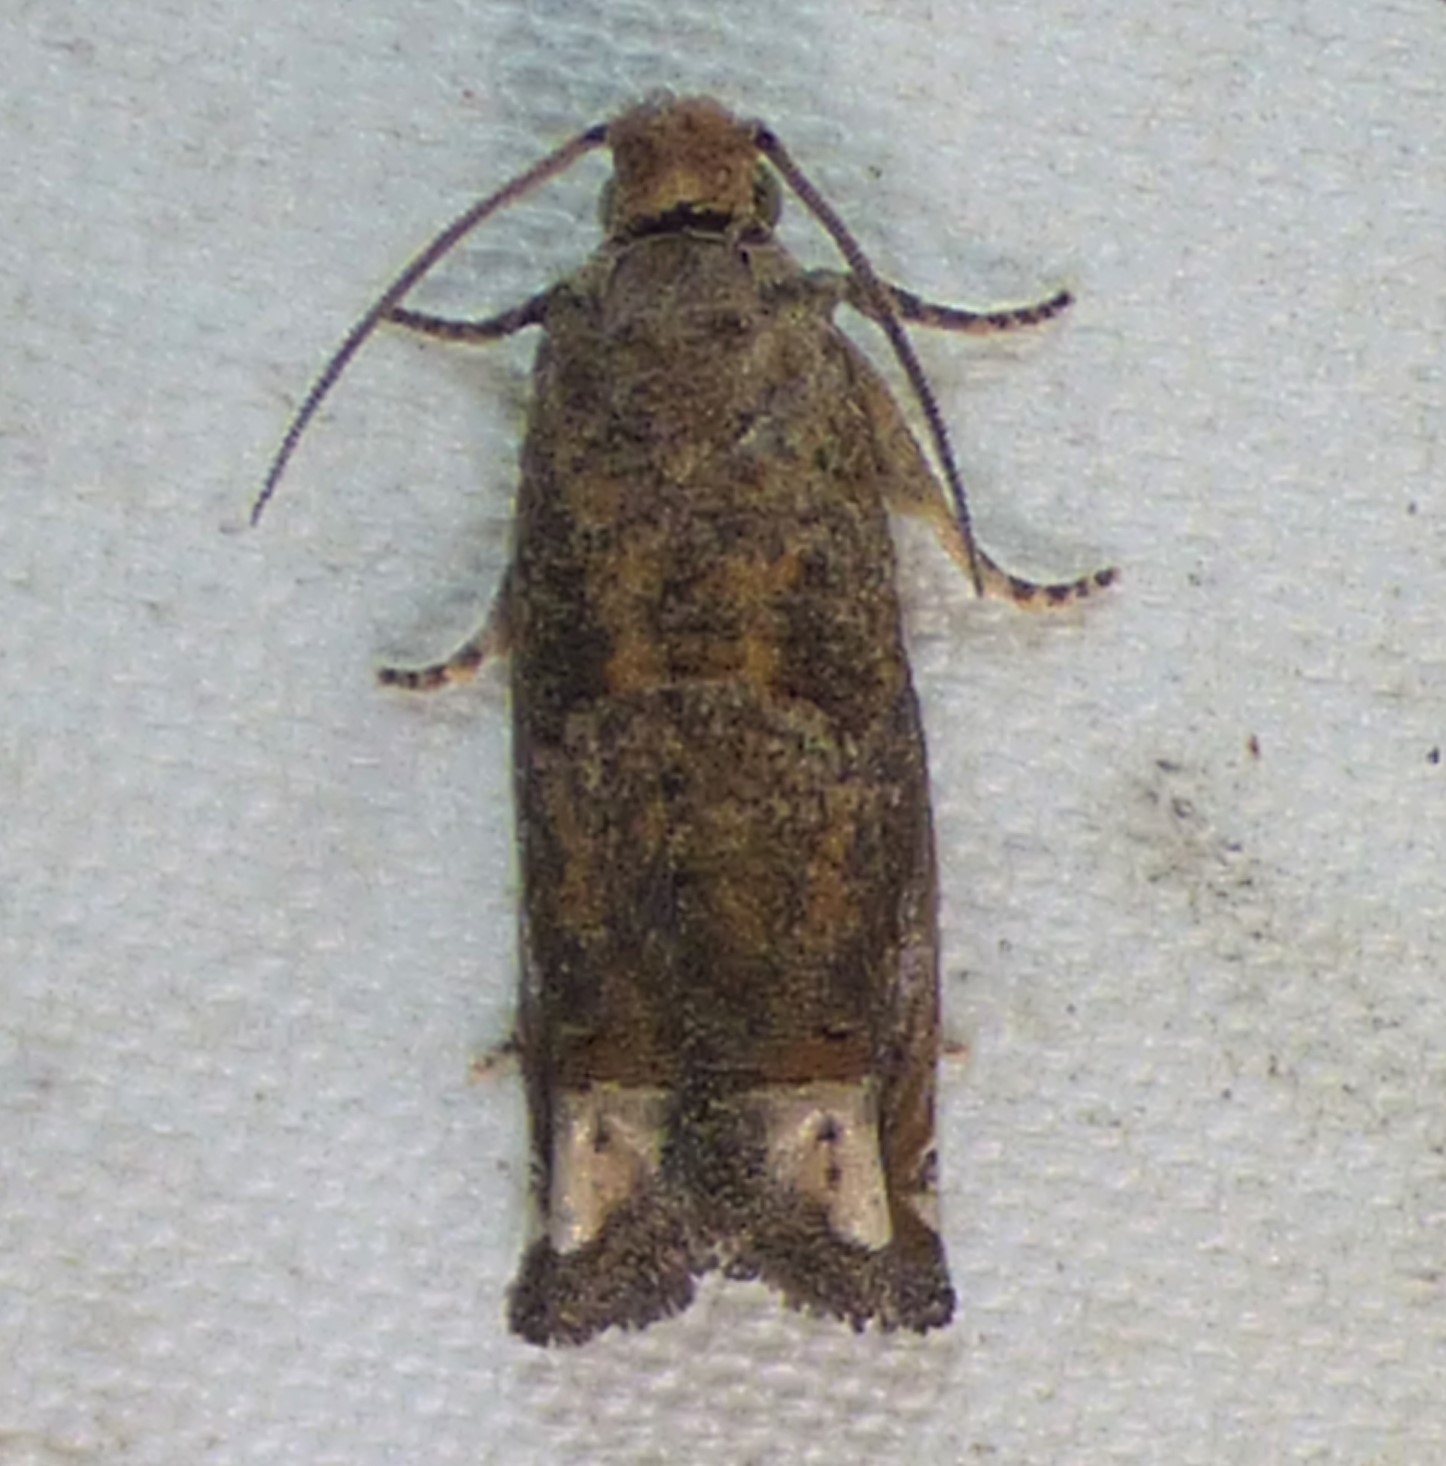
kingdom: Animalia
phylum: Arthropoda
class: Insecta
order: Lepidoptera
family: Tortricidae
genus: Epiblema
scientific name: Epiblema abruptana
